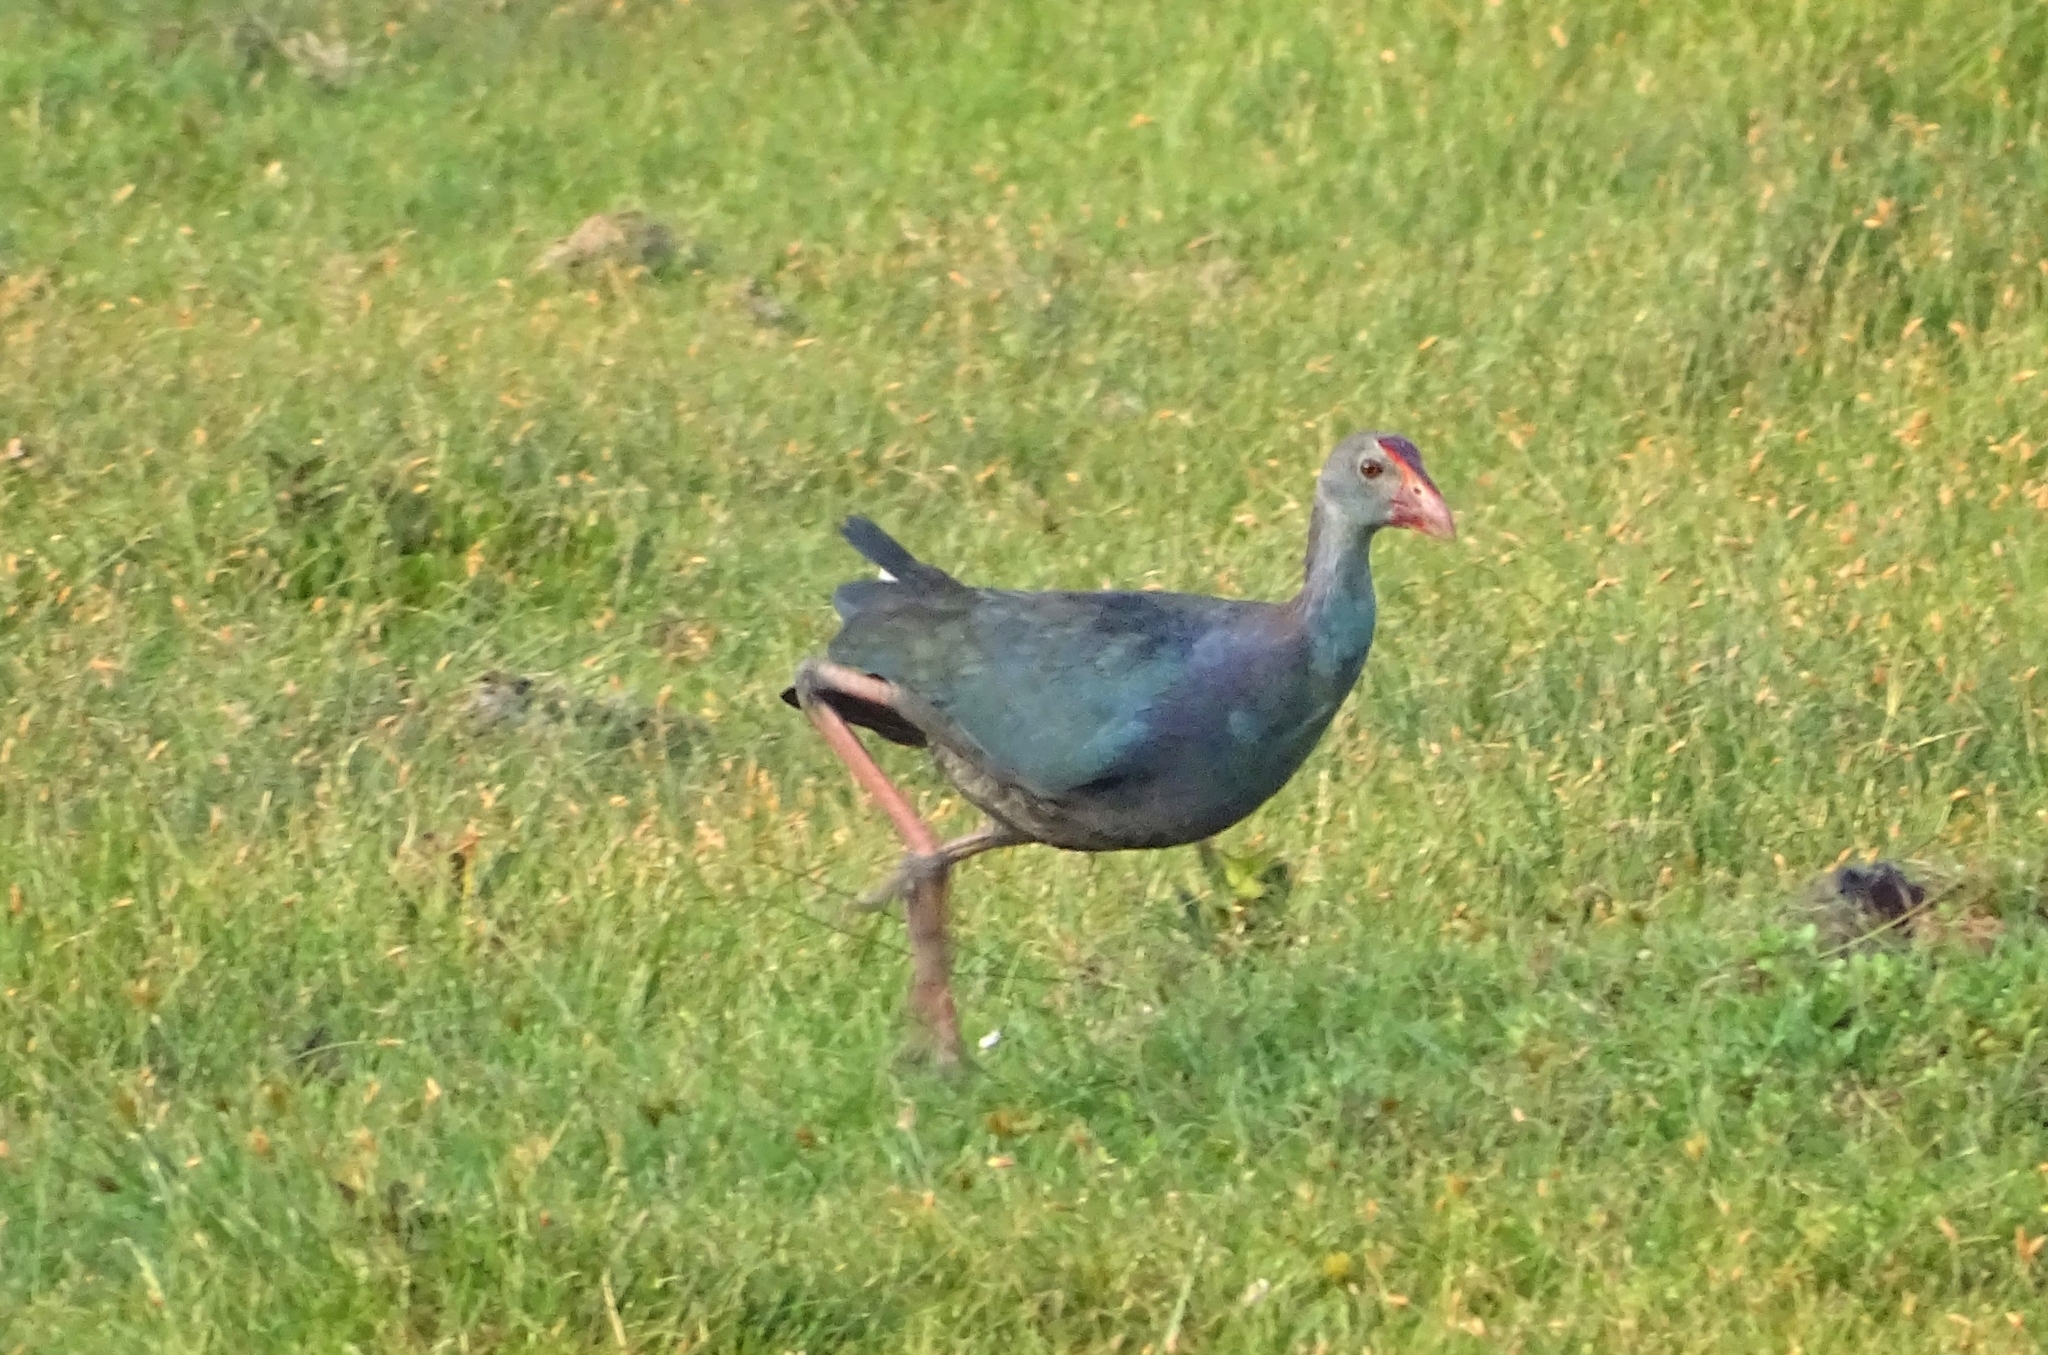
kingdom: Animalia
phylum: Chordata
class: Aves
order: Gruiformes
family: Rallidae
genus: Porphyrio
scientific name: Porphyrio porphyrio
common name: Purple swamphen
